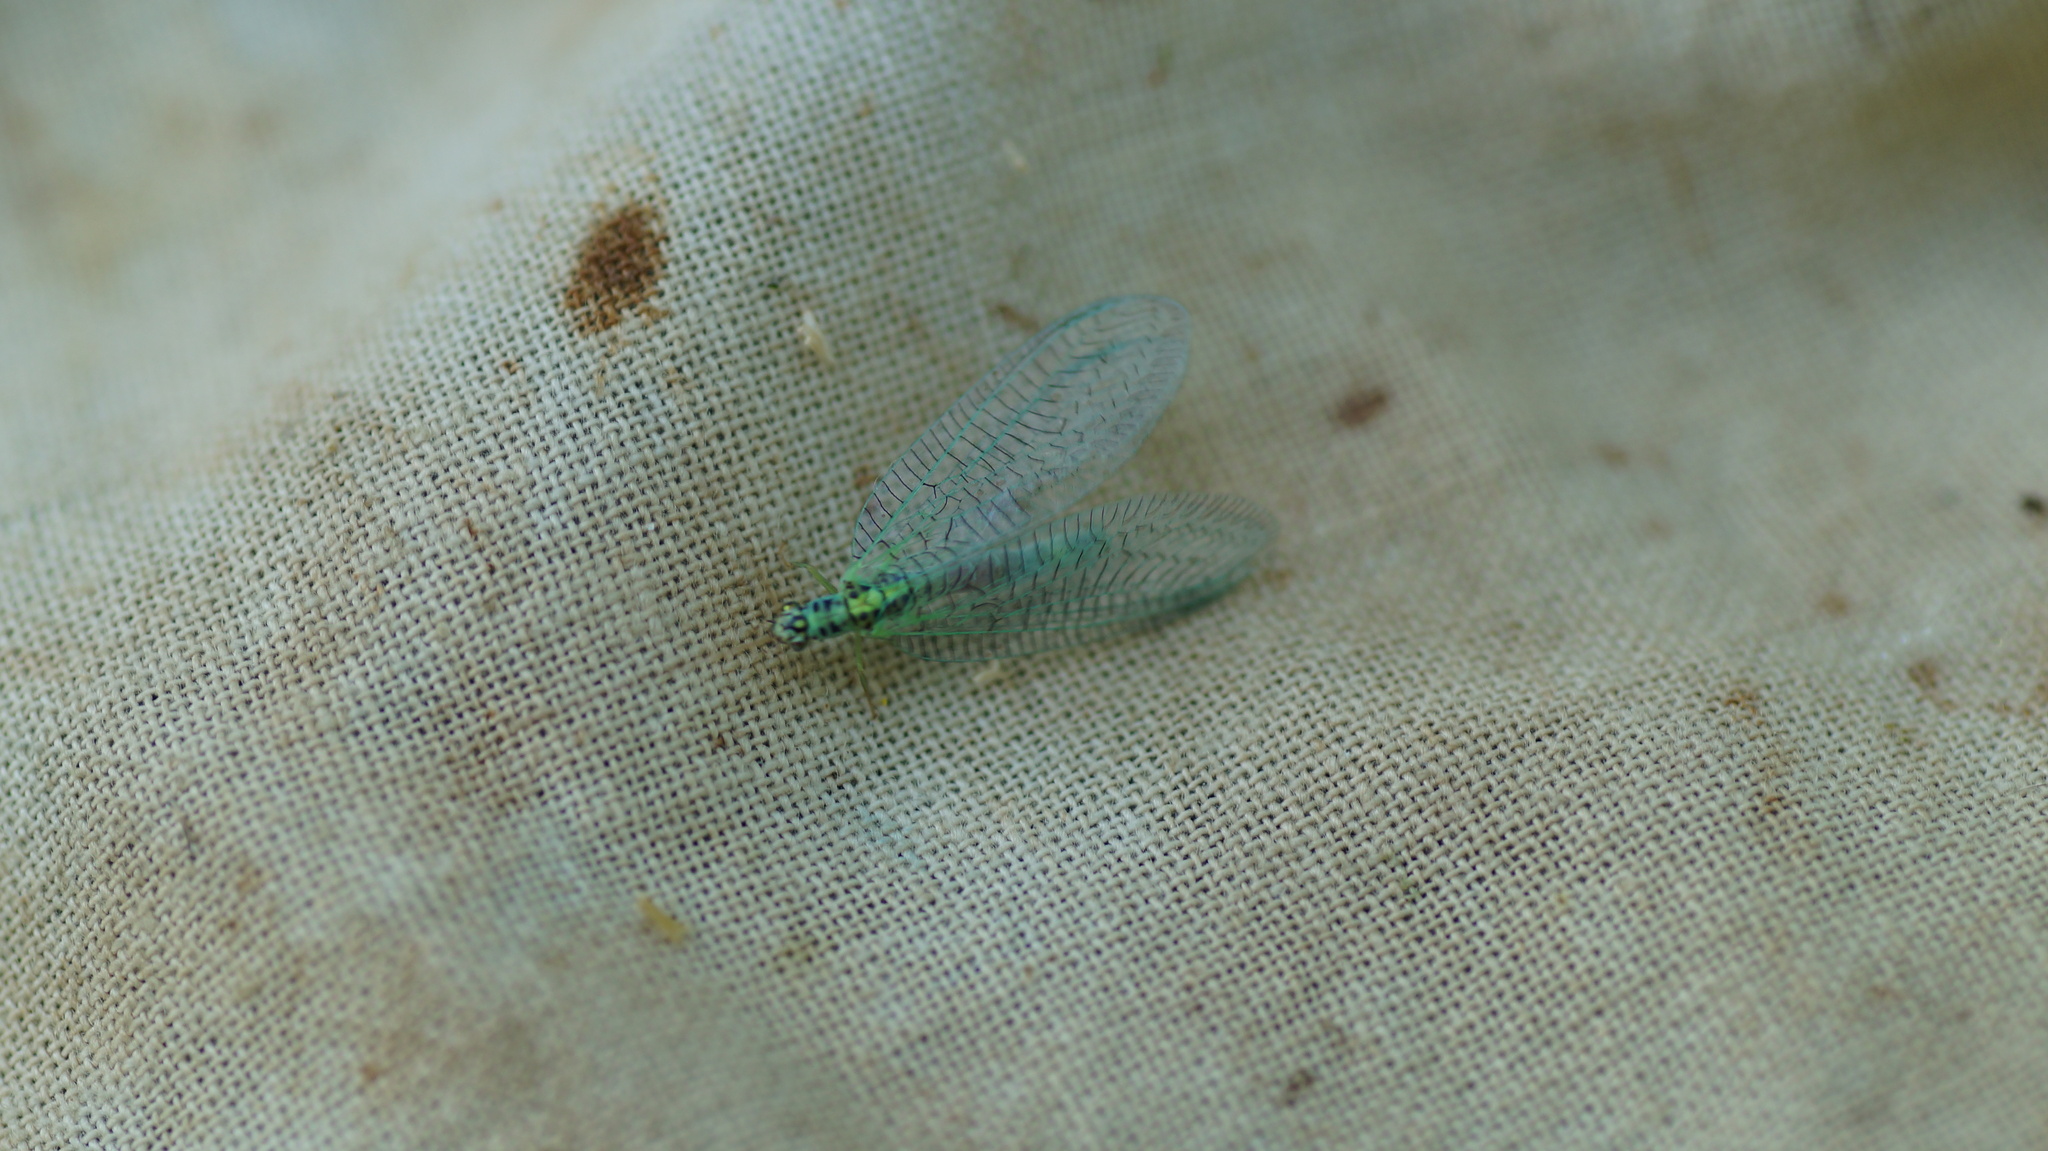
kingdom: Animalia
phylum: Arthropoda
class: Insecta
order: Neuroptera
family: Chrysopidae
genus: Chrysopa
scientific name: Chrysopa perla
